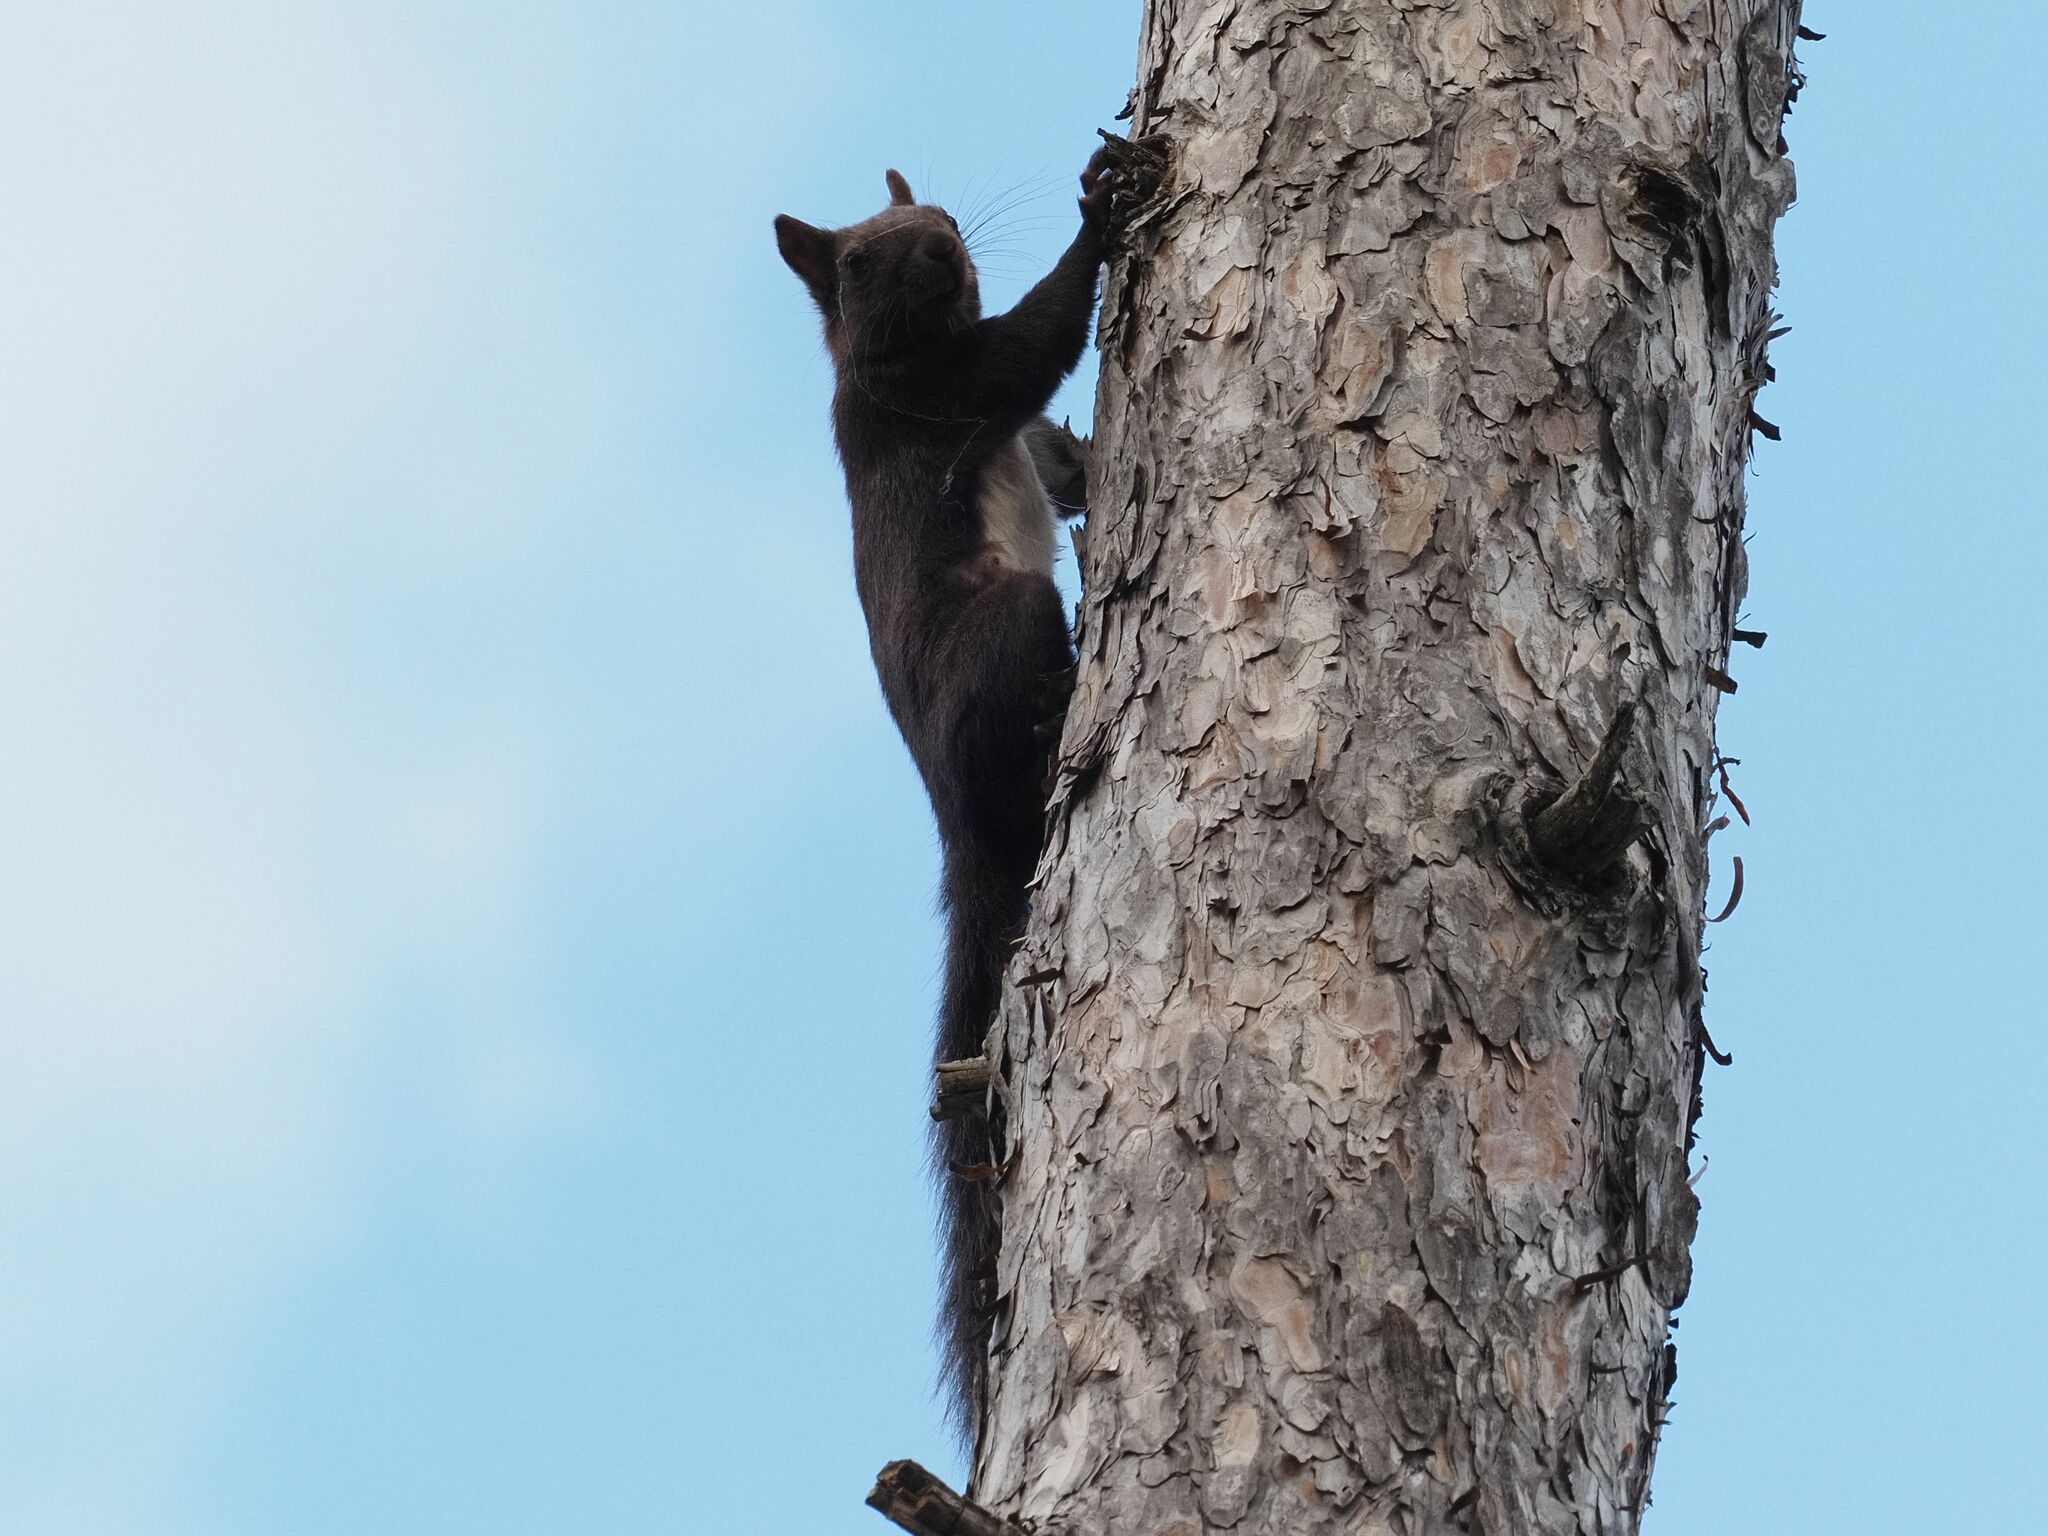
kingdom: Animalia
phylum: Chordata
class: Mammalia
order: Rodentia
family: Sciuridae
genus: Sciurus
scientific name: Sciurus vulgaris
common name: Eurasian red squirrel
